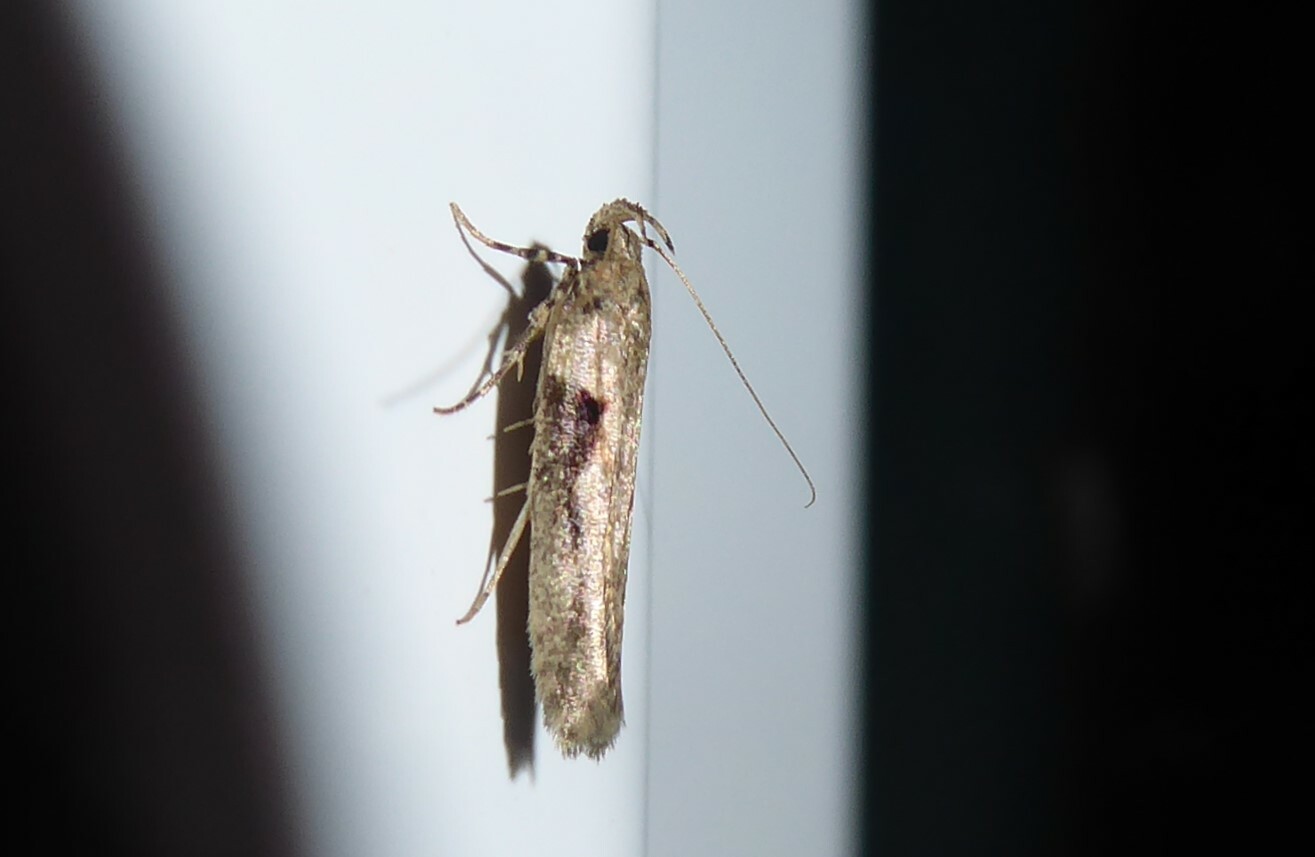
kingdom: Animalia
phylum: Arthropoda
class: Insecta
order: Lepidoptera
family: Gelechiidae
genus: Symmetrischema
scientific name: Symmetrischema tangolias
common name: Moth
